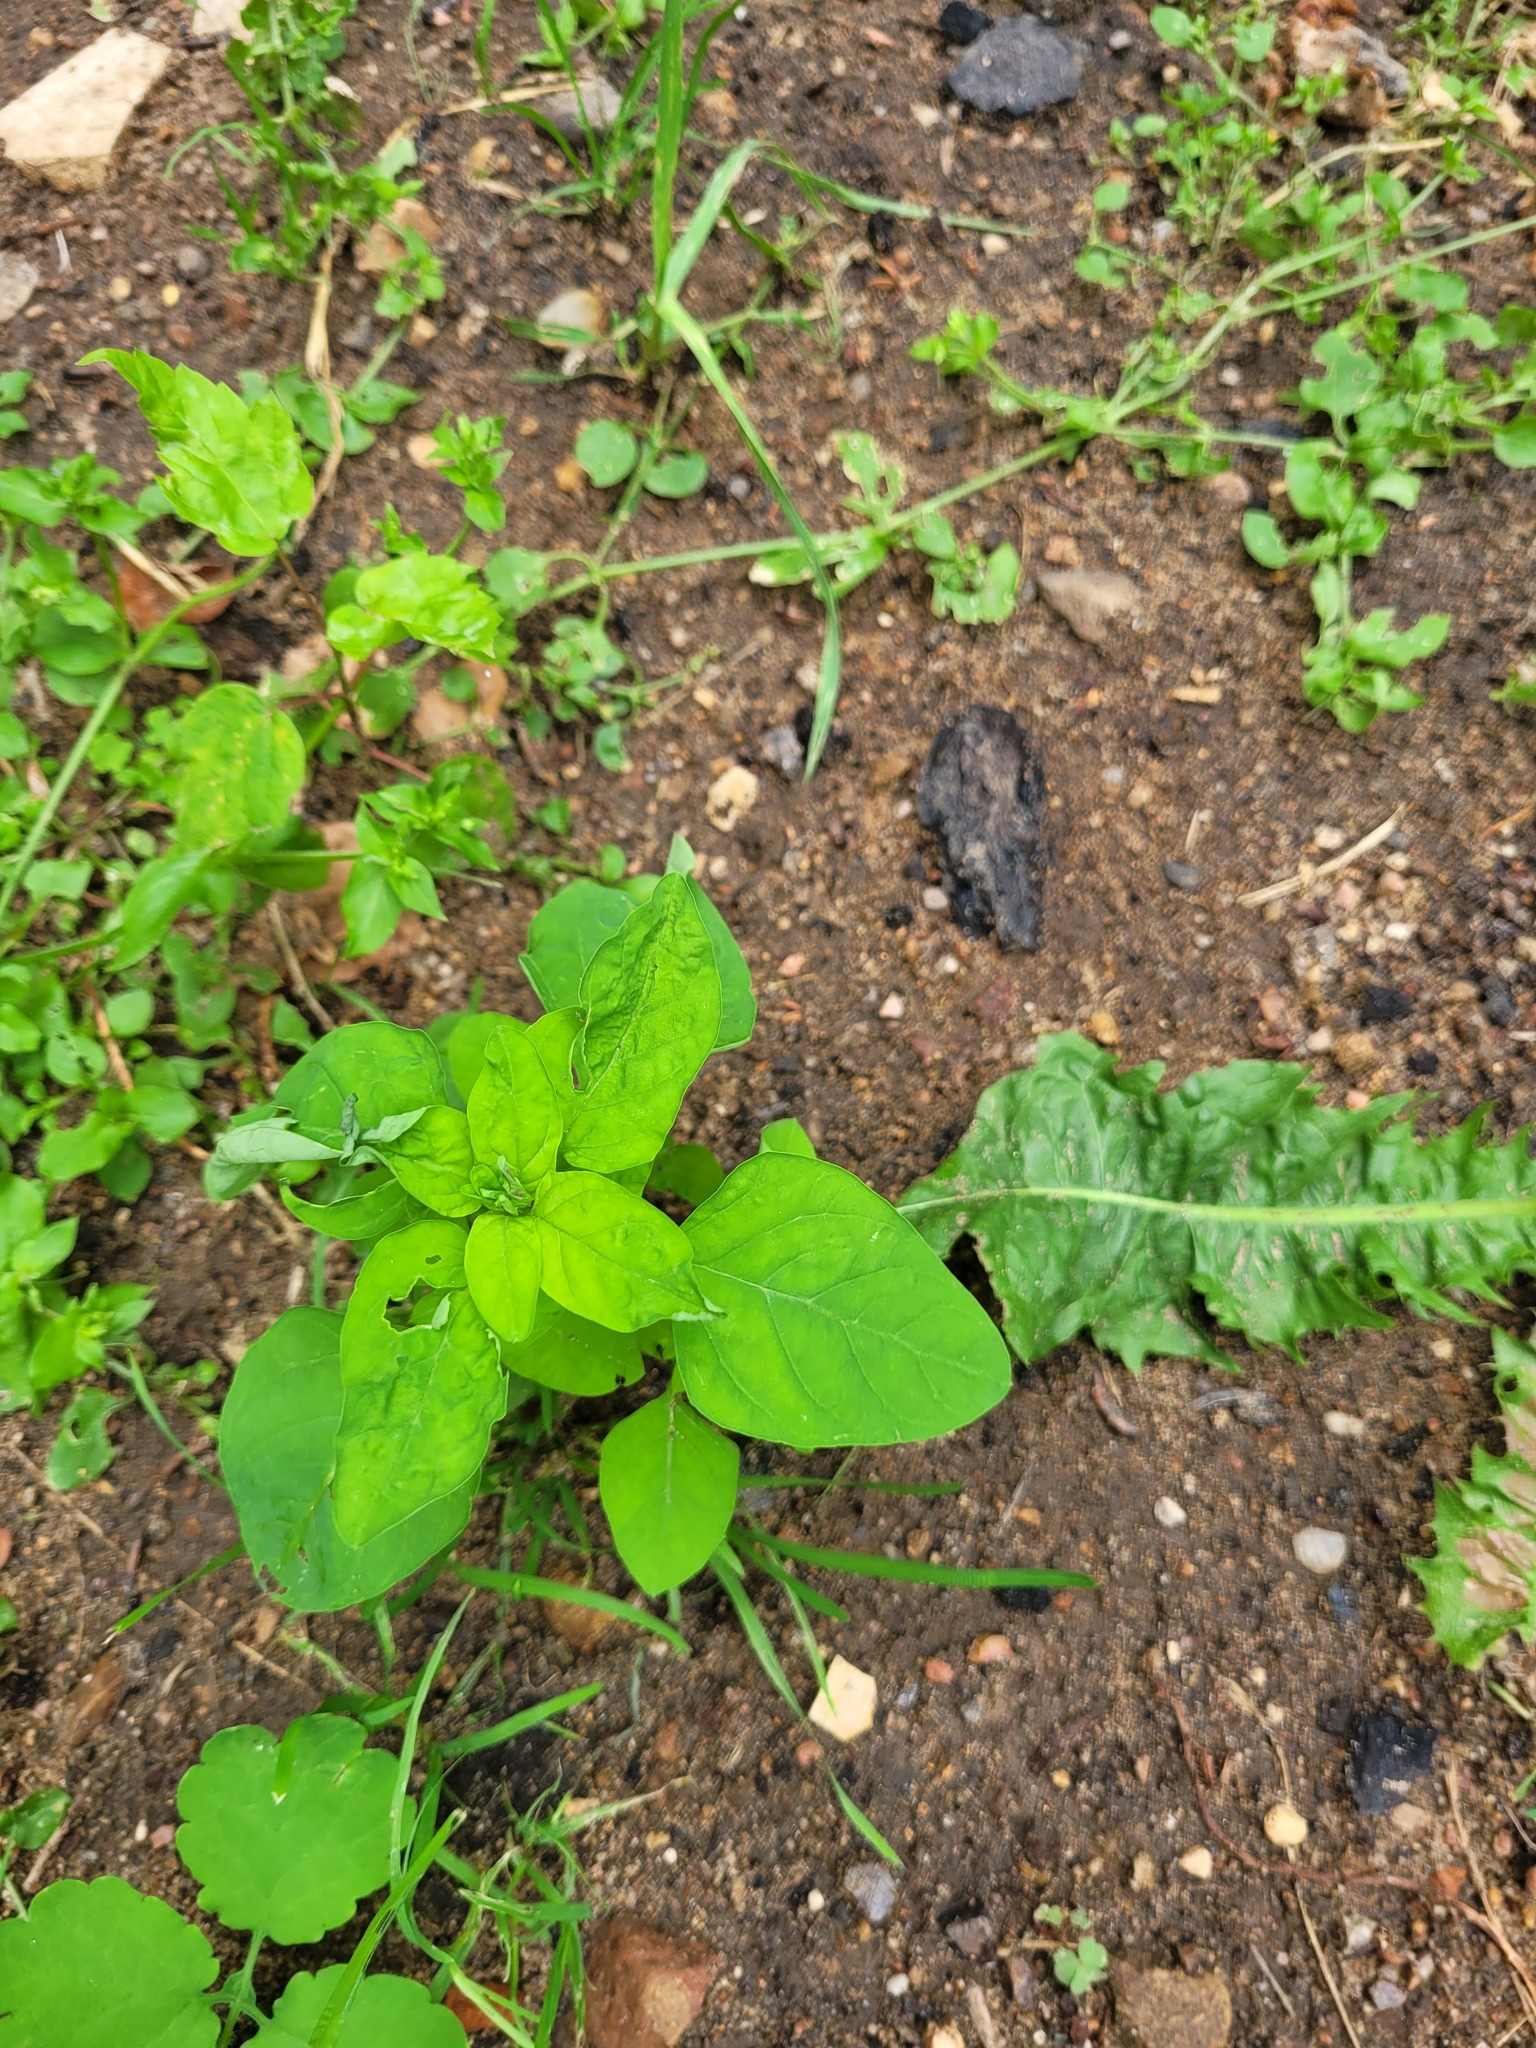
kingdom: Plantae
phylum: Tracheophyta
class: Magnoliopsida
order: Caryophyllales
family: Amaranthaceae
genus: Lipandra
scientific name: Lipandra polysperma
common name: Many-seed goosefoot
